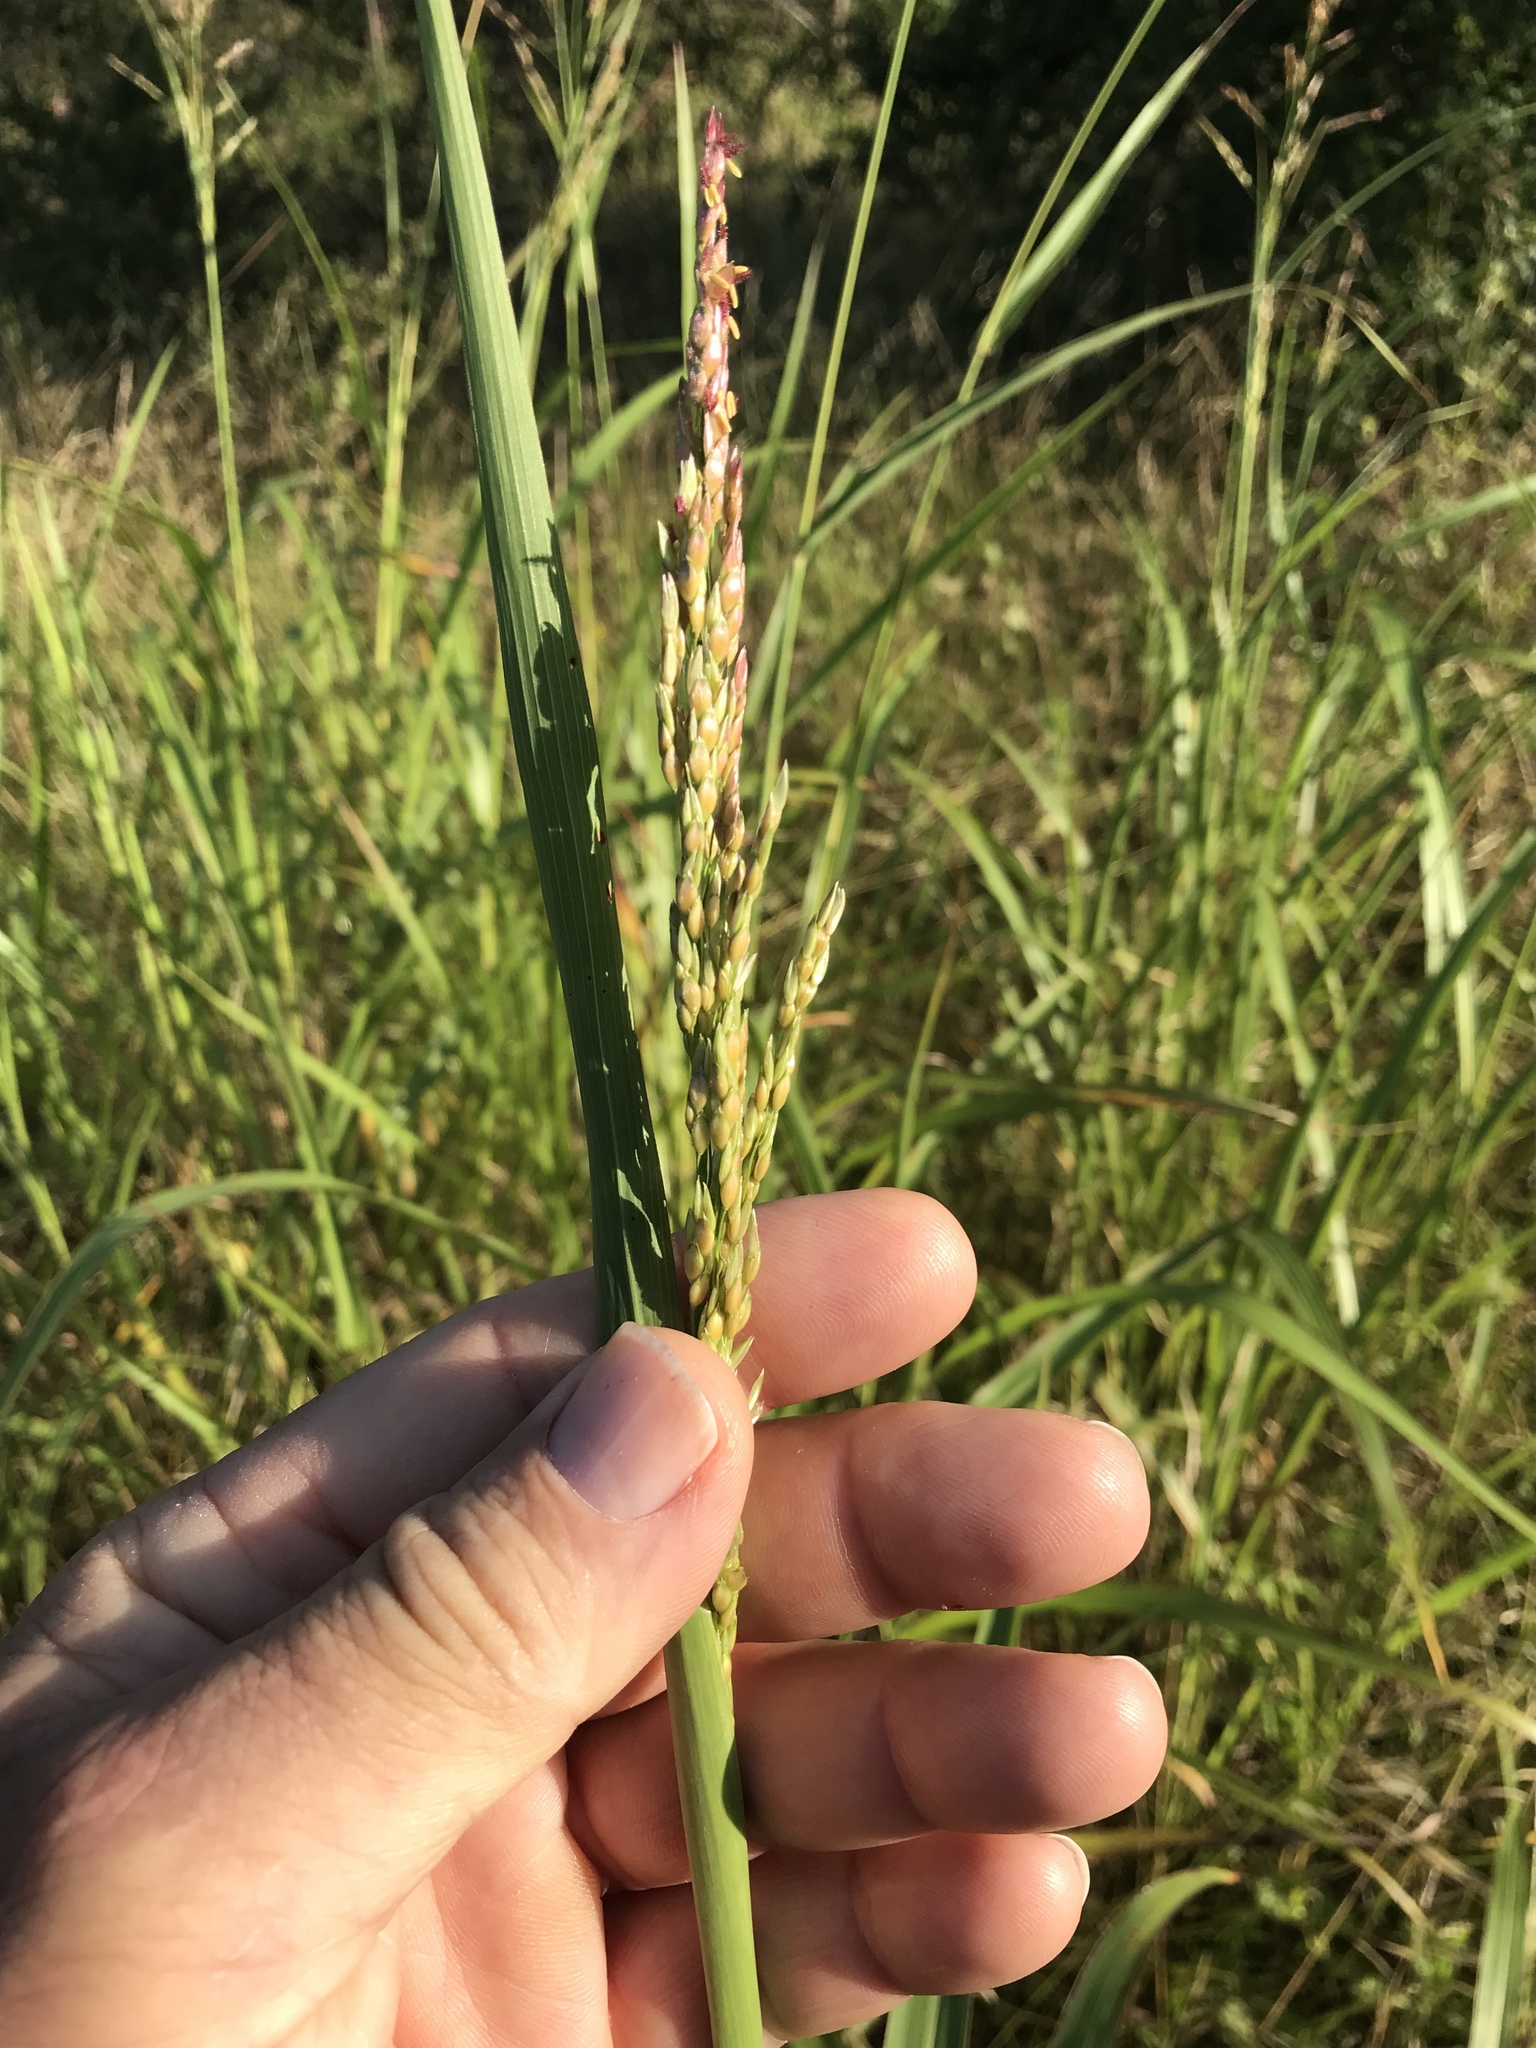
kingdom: Plantae
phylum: Tracheophyta
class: Liliopsida
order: Poales
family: Poaceae
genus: Sorghum
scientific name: Sorghum halepense
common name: Johnson-grass
